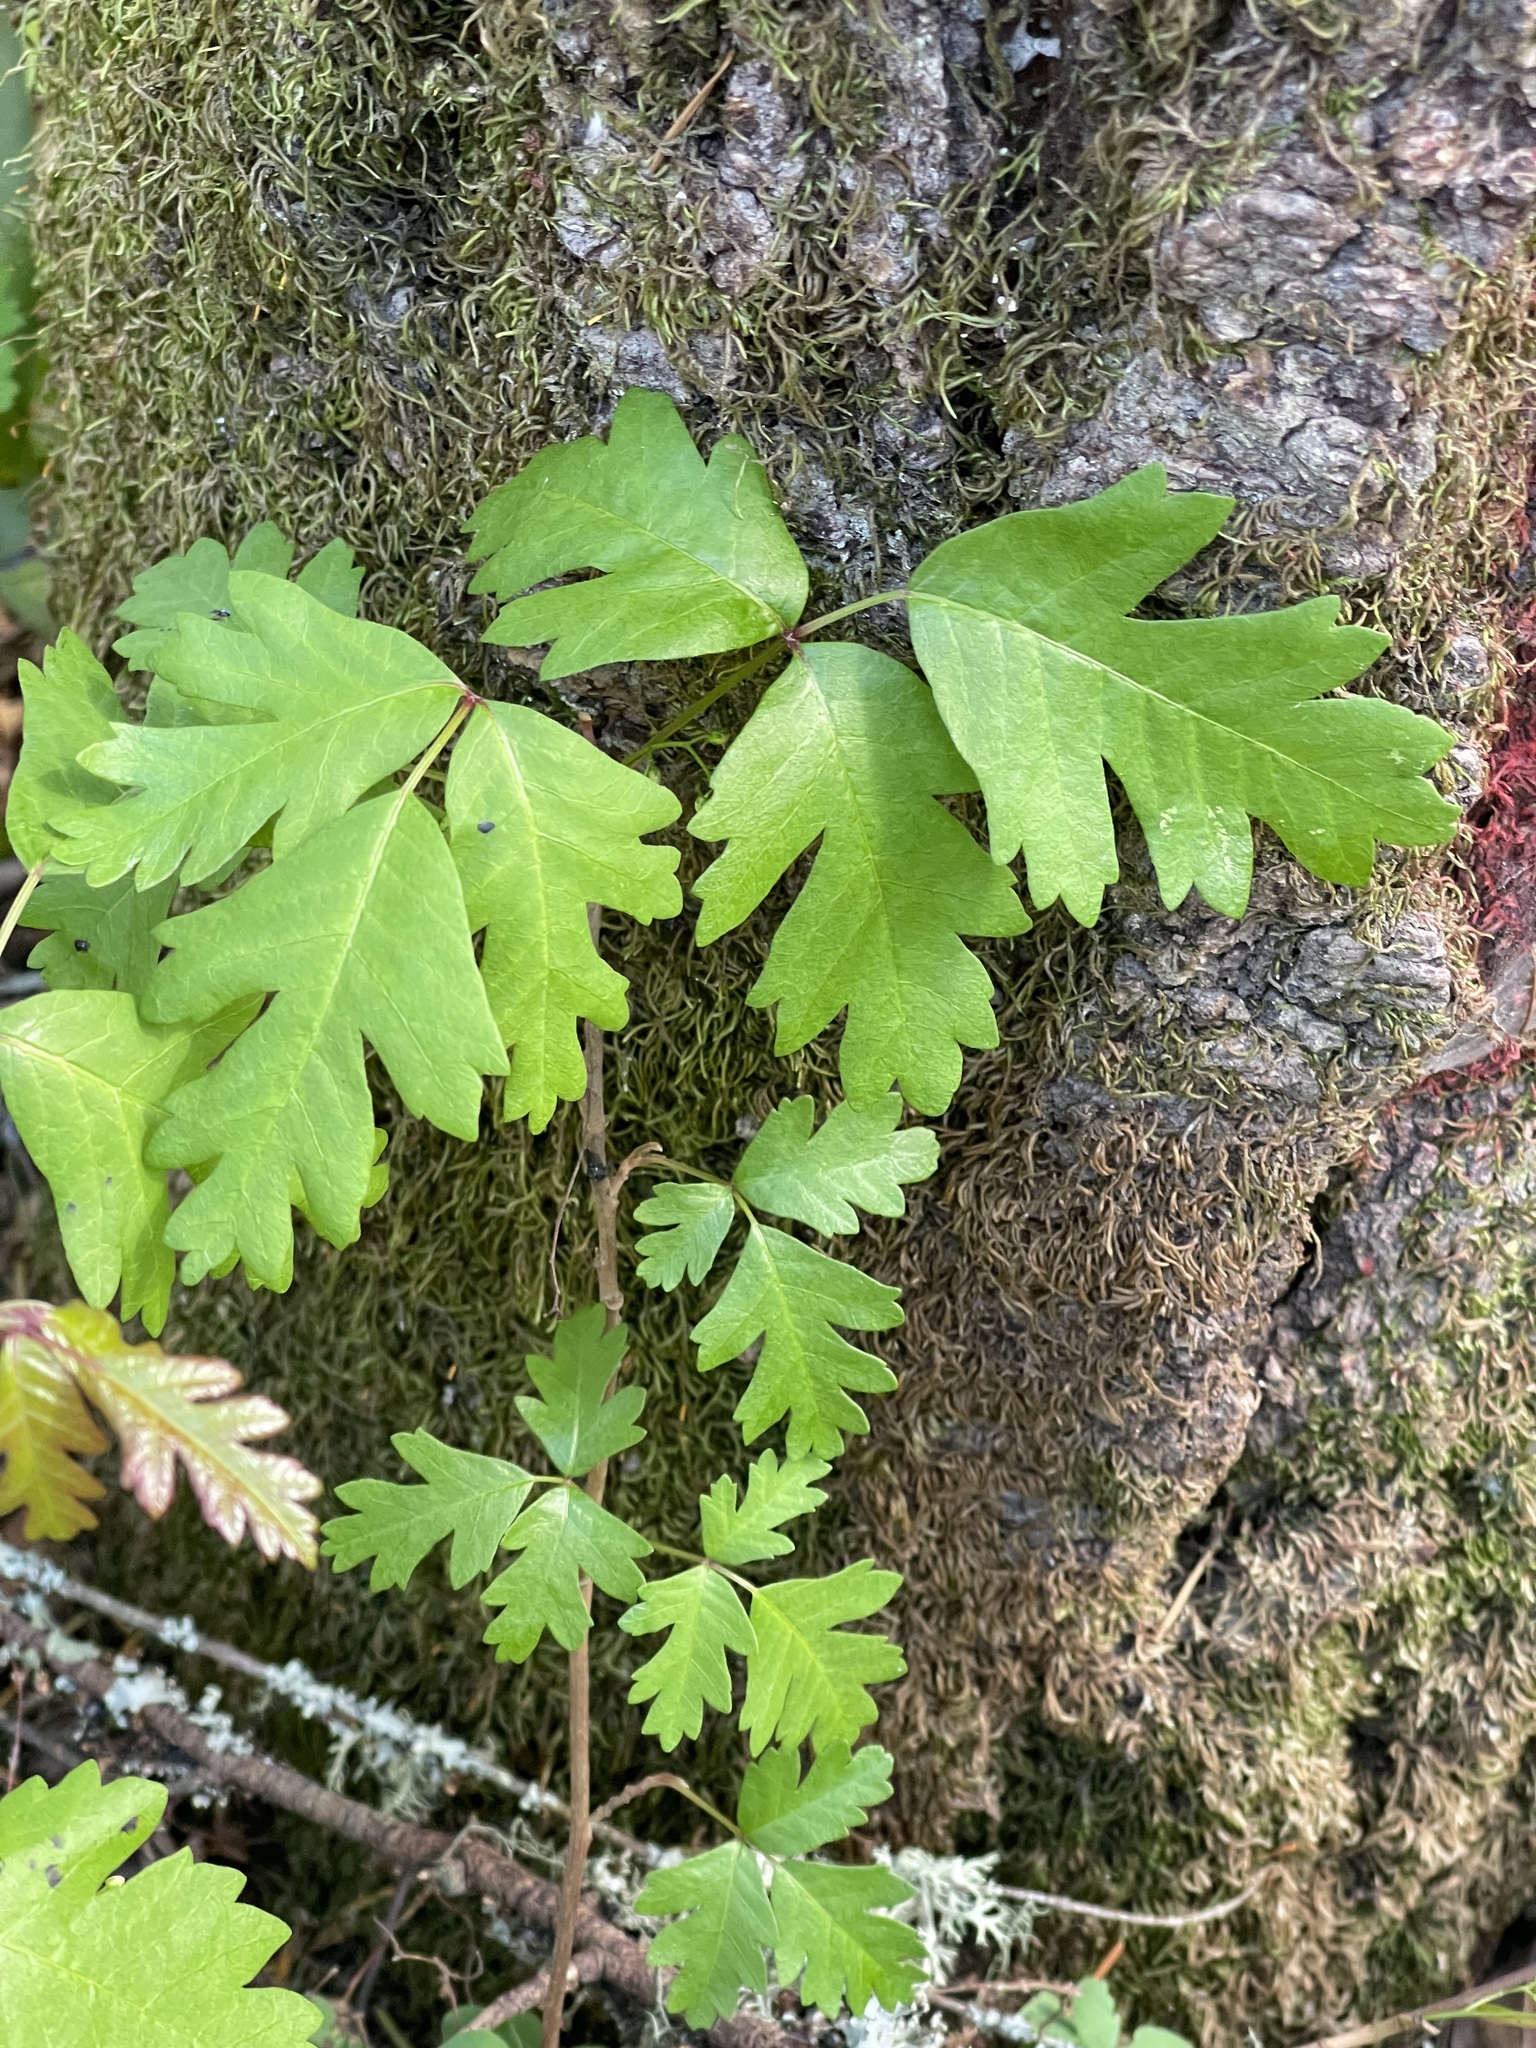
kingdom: Plantae
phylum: Tracheophyta
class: Magnoliopsida
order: Sapindales
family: Anacardiaceae
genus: Toxicodendron
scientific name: Toxicodendron diversilobum
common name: Pacific poison-oak
